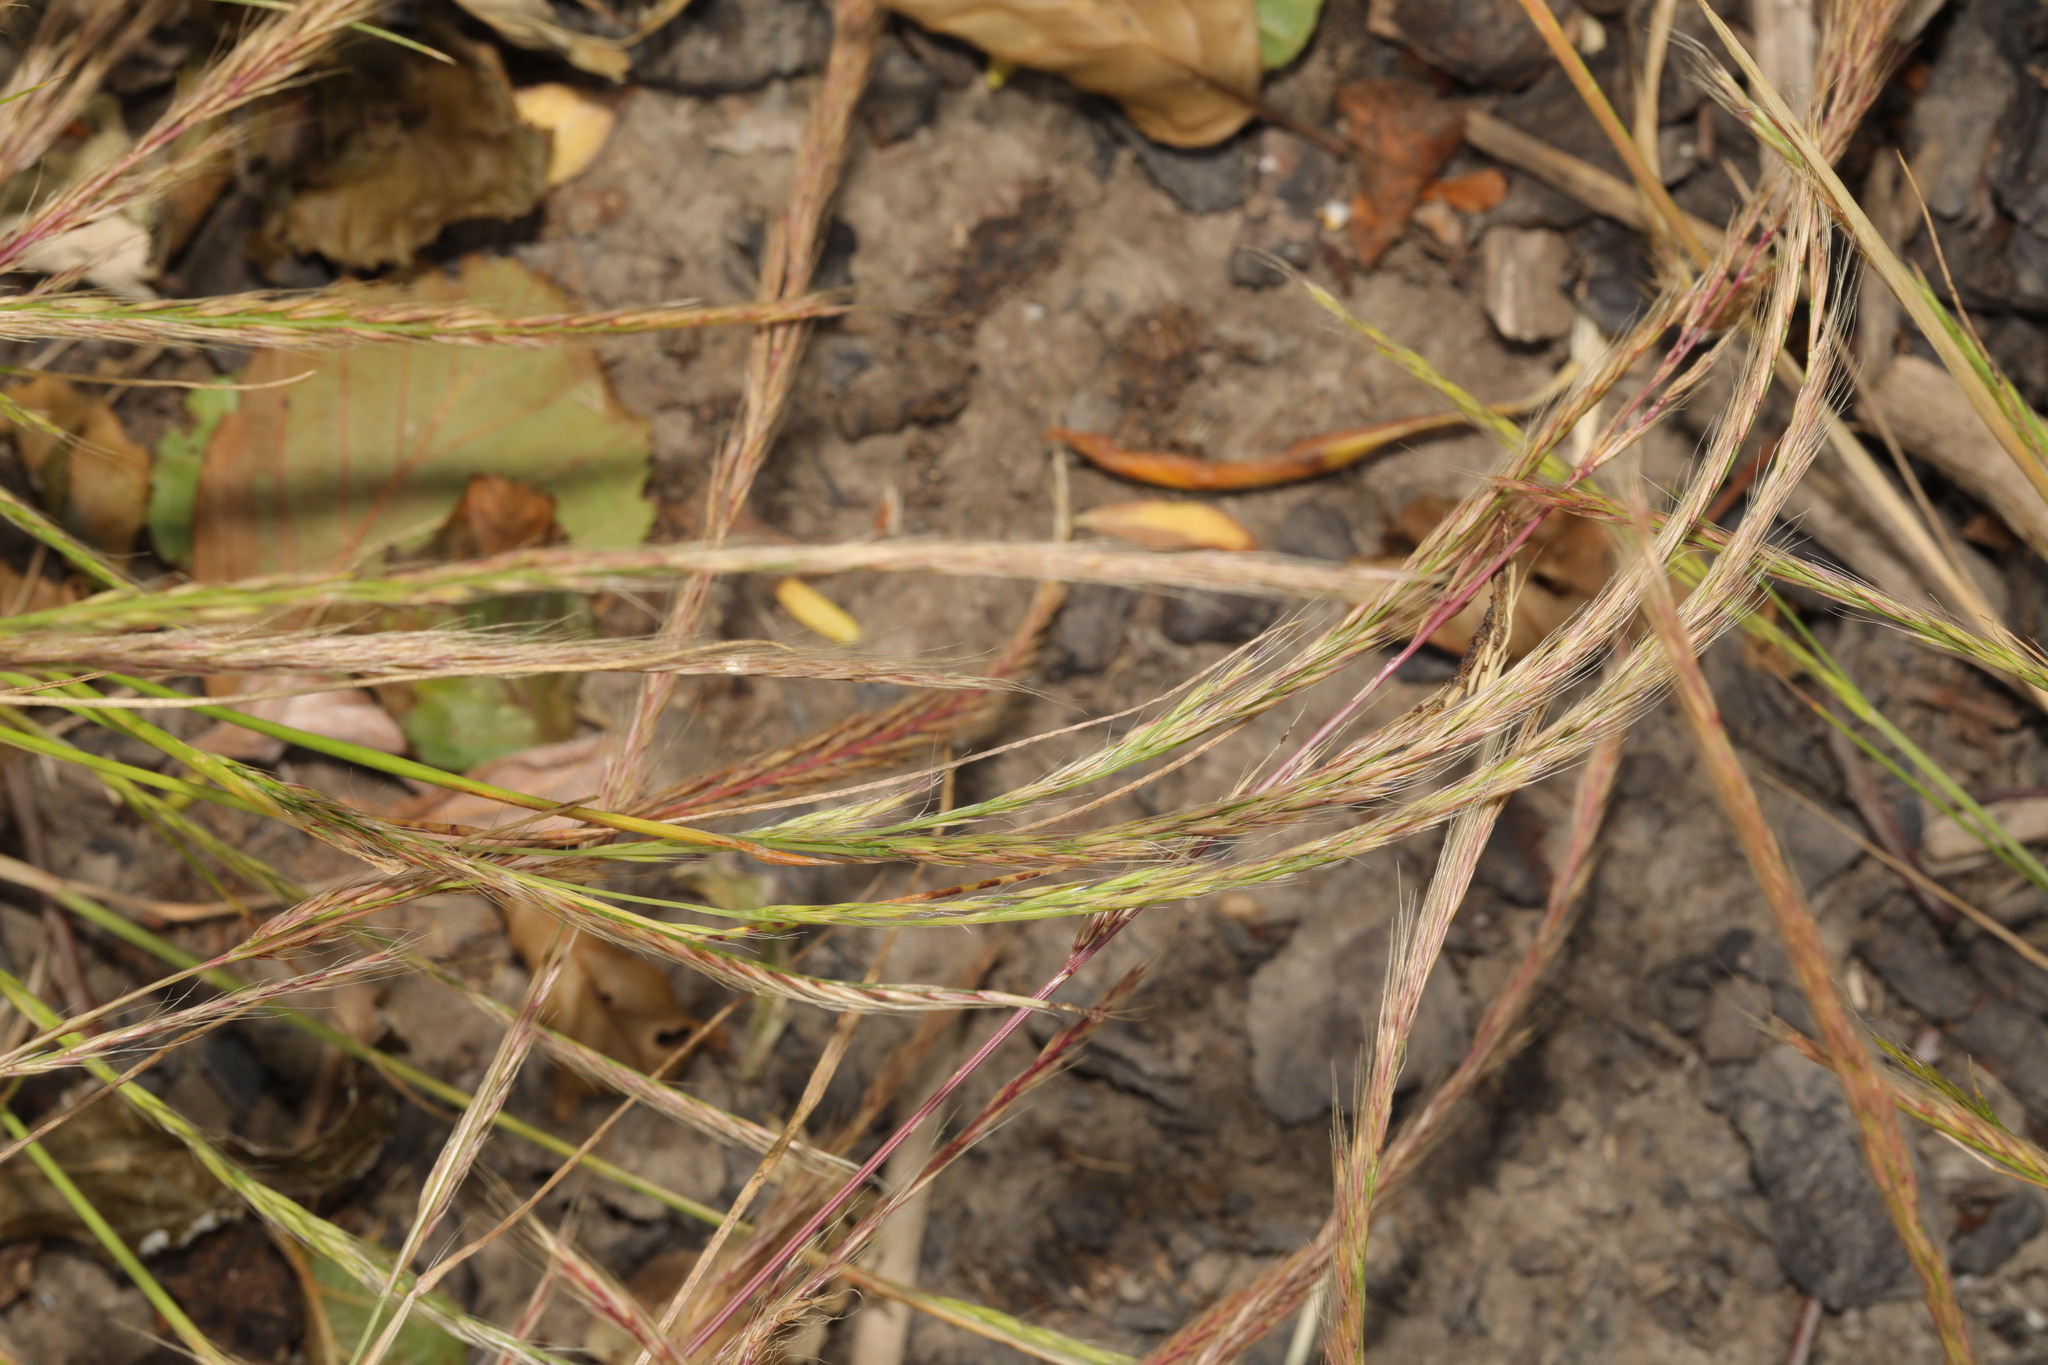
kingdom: Plantae
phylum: Tracheophyta
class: Liliopsida
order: Poales
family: Poaceae
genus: Festuca
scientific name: Festuca myuros
